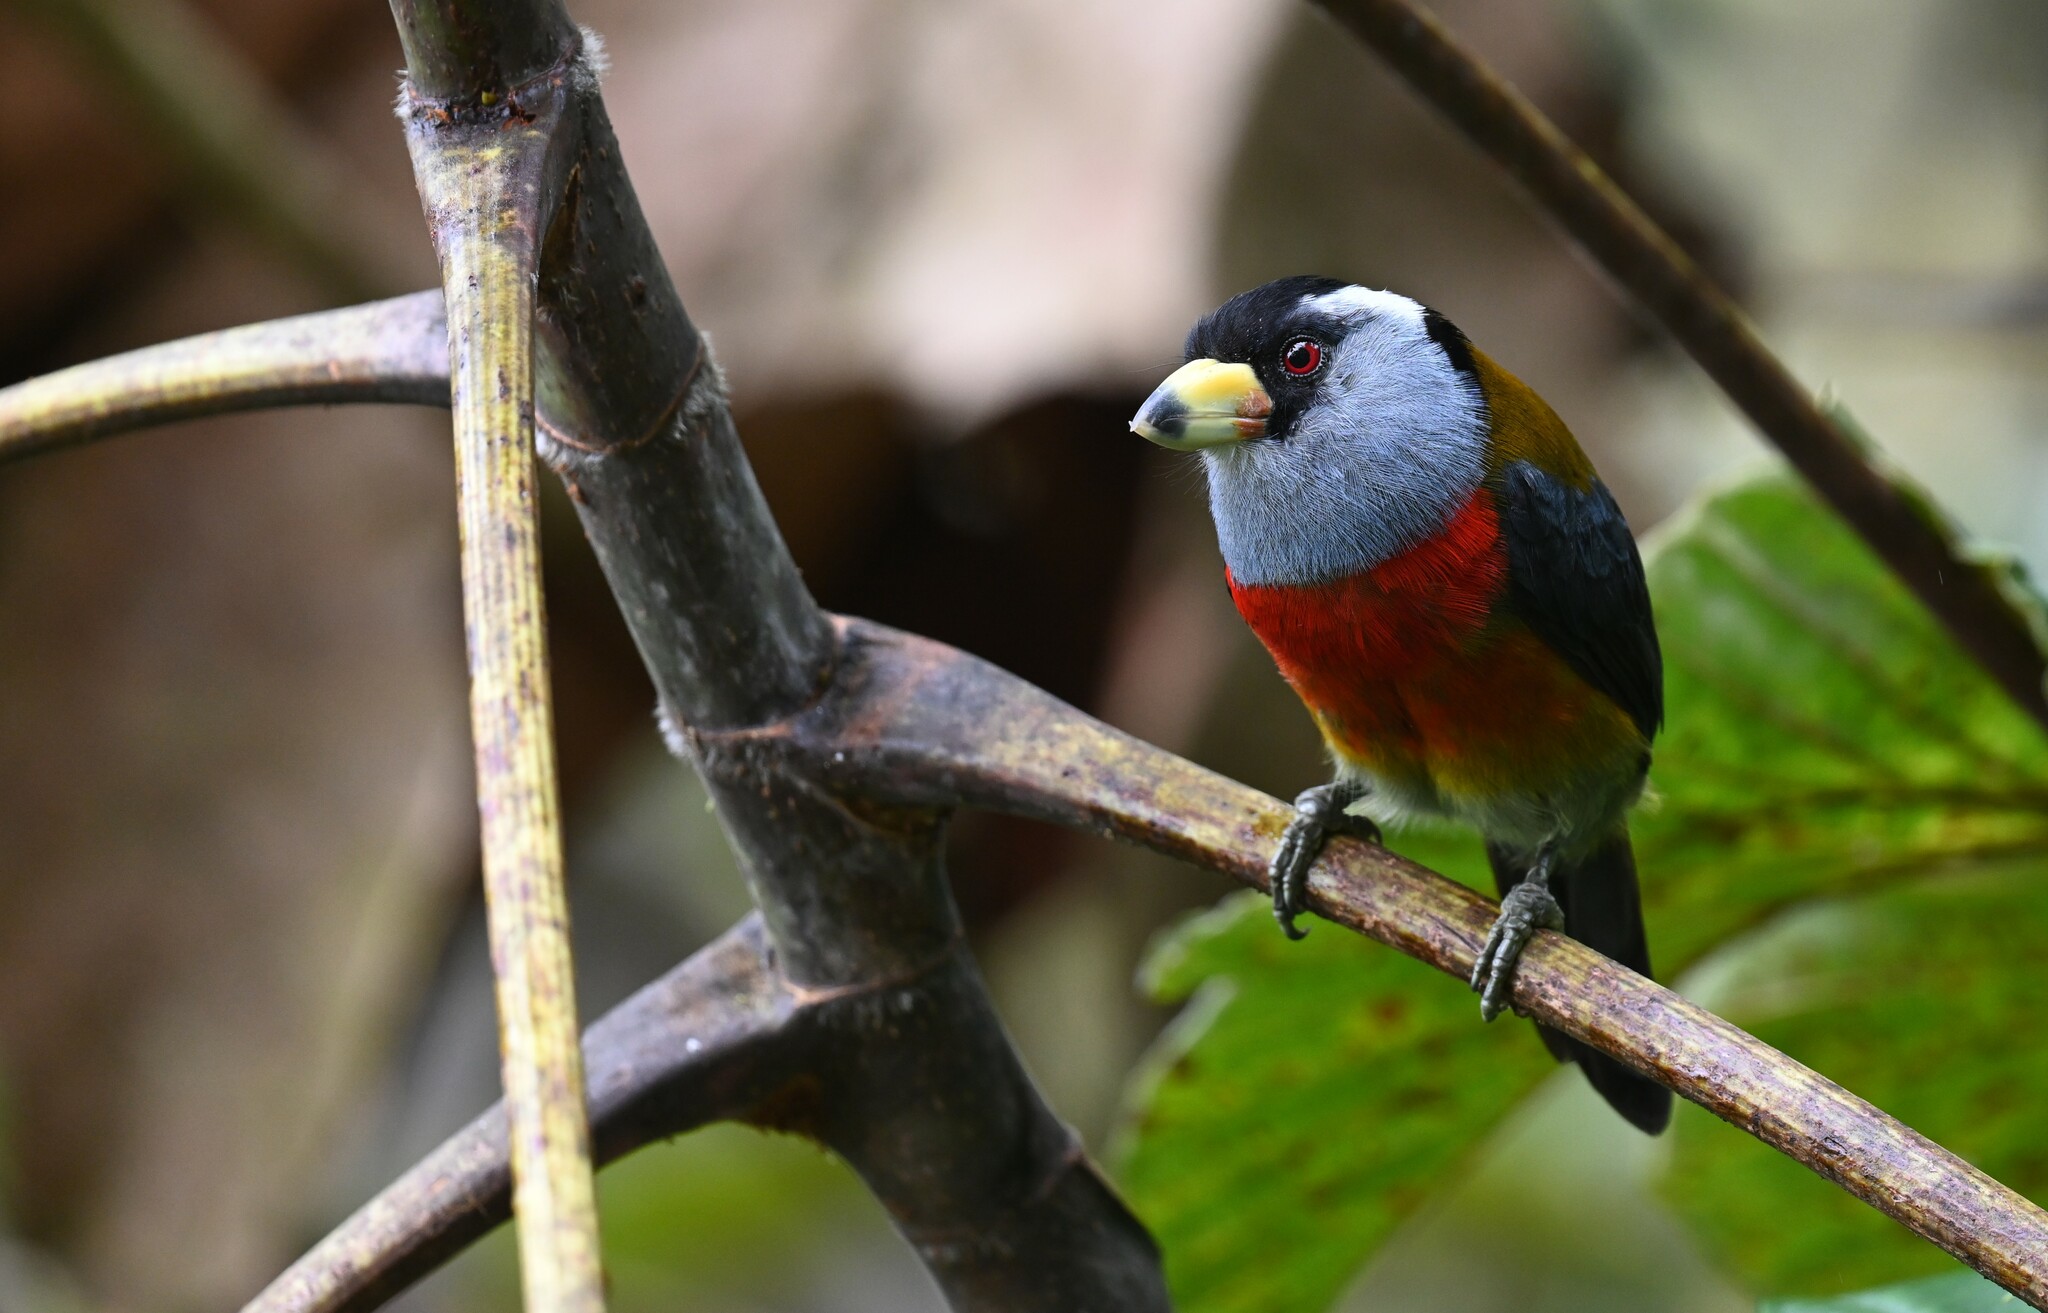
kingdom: Animalia
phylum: Chordata
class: Aves
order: Piciformes
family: Semnornithidae
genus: Semnornis
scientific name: Semnornis ramphastinus
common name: Toucan barbet
